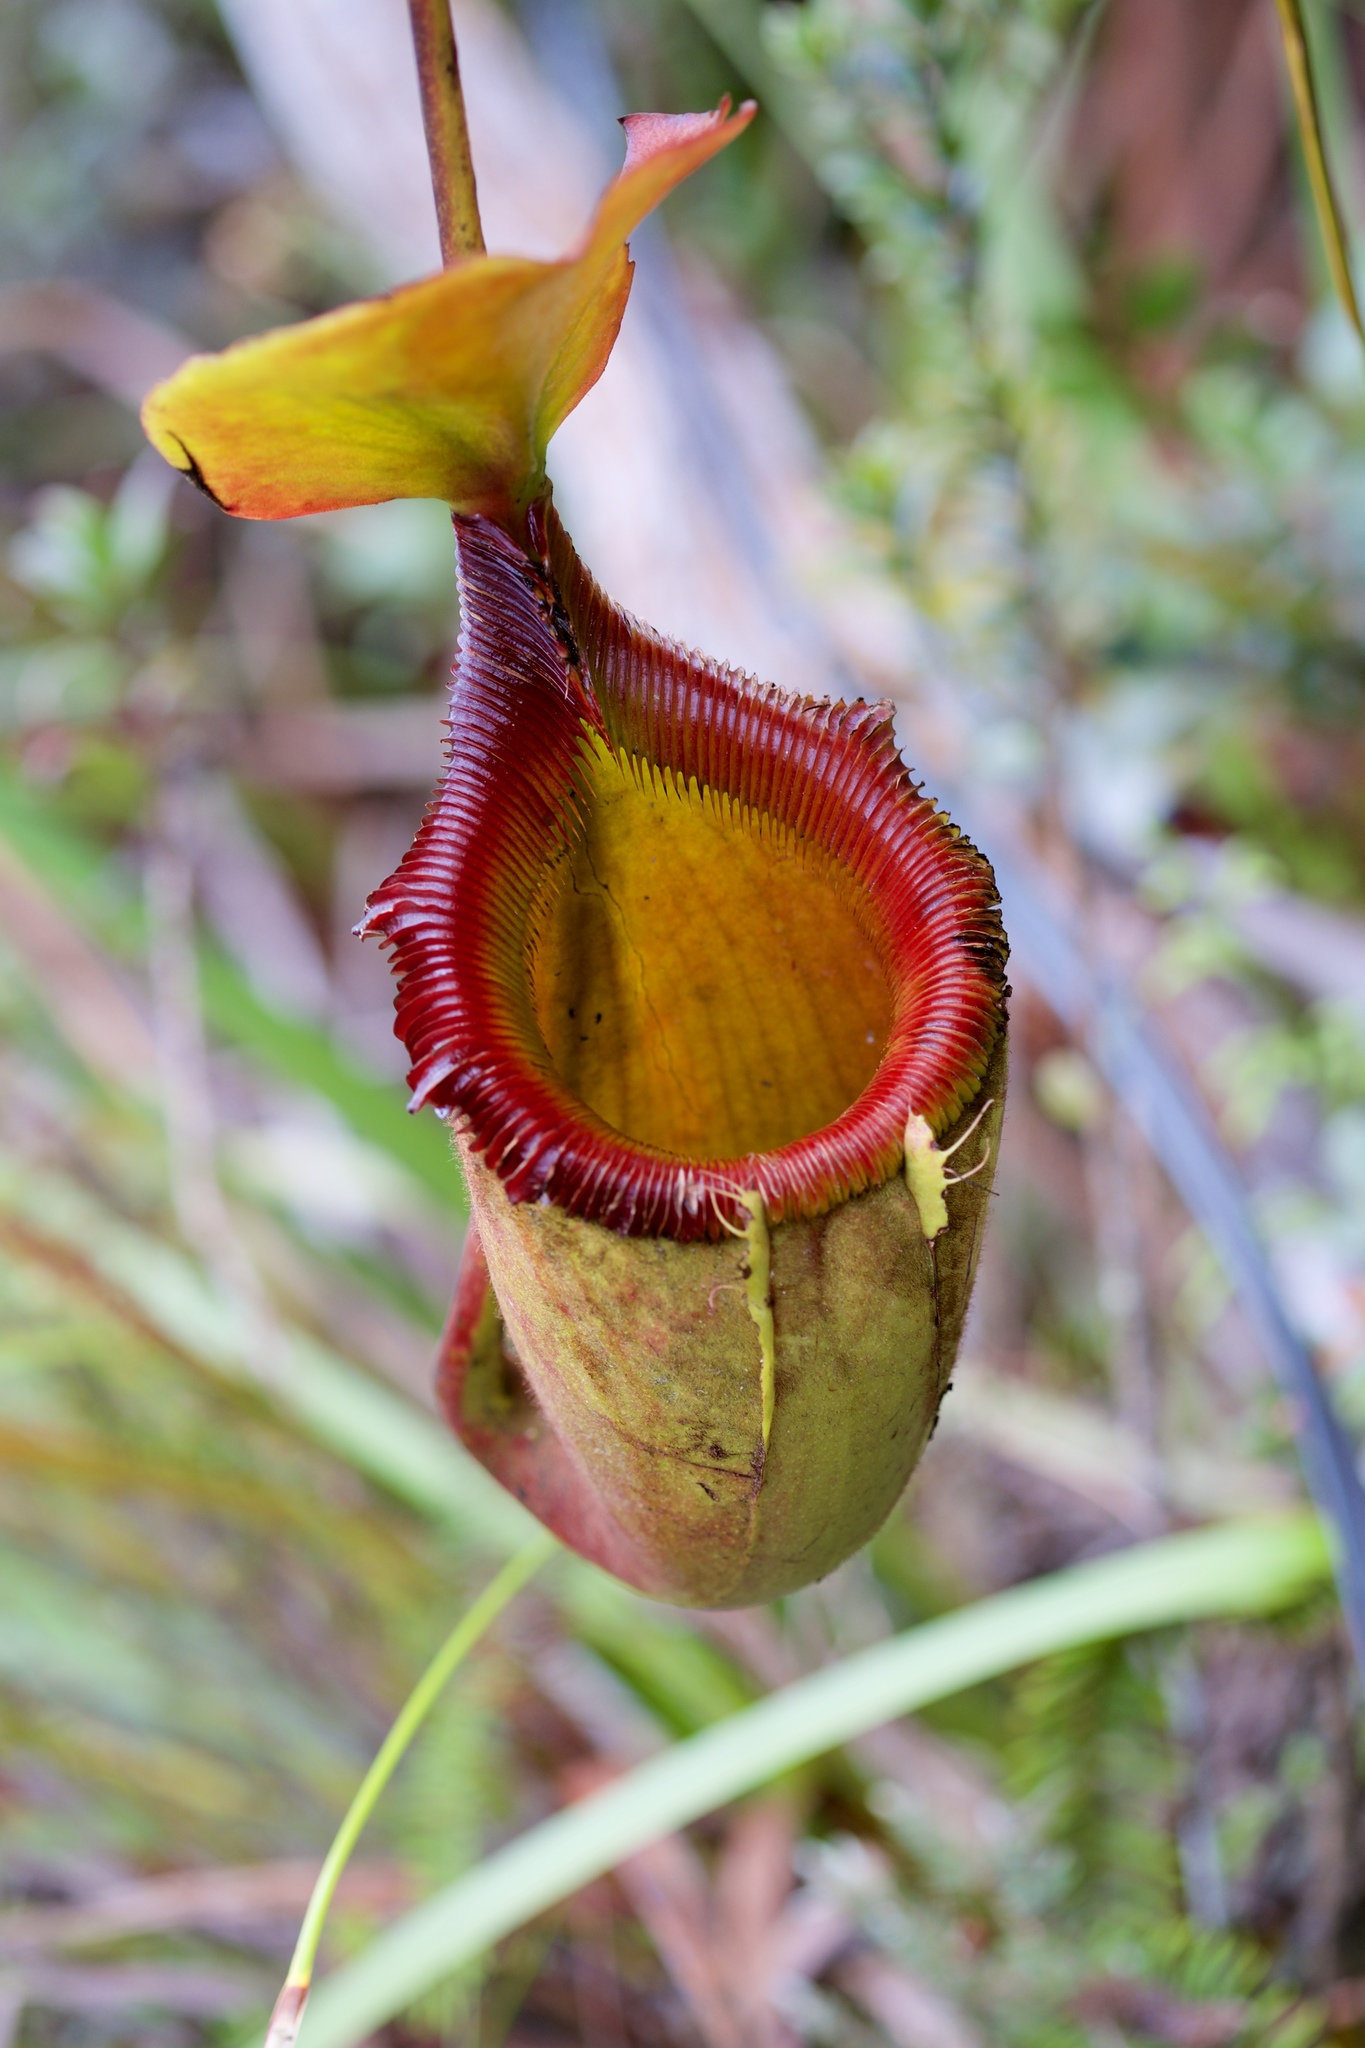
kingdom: Plantae
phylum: Tracheophyta
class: Magnoliopsida
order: Caryophyllales
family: Nepenthaceae
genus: Nepenthes
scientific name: Nepenthes kinabaluensis
